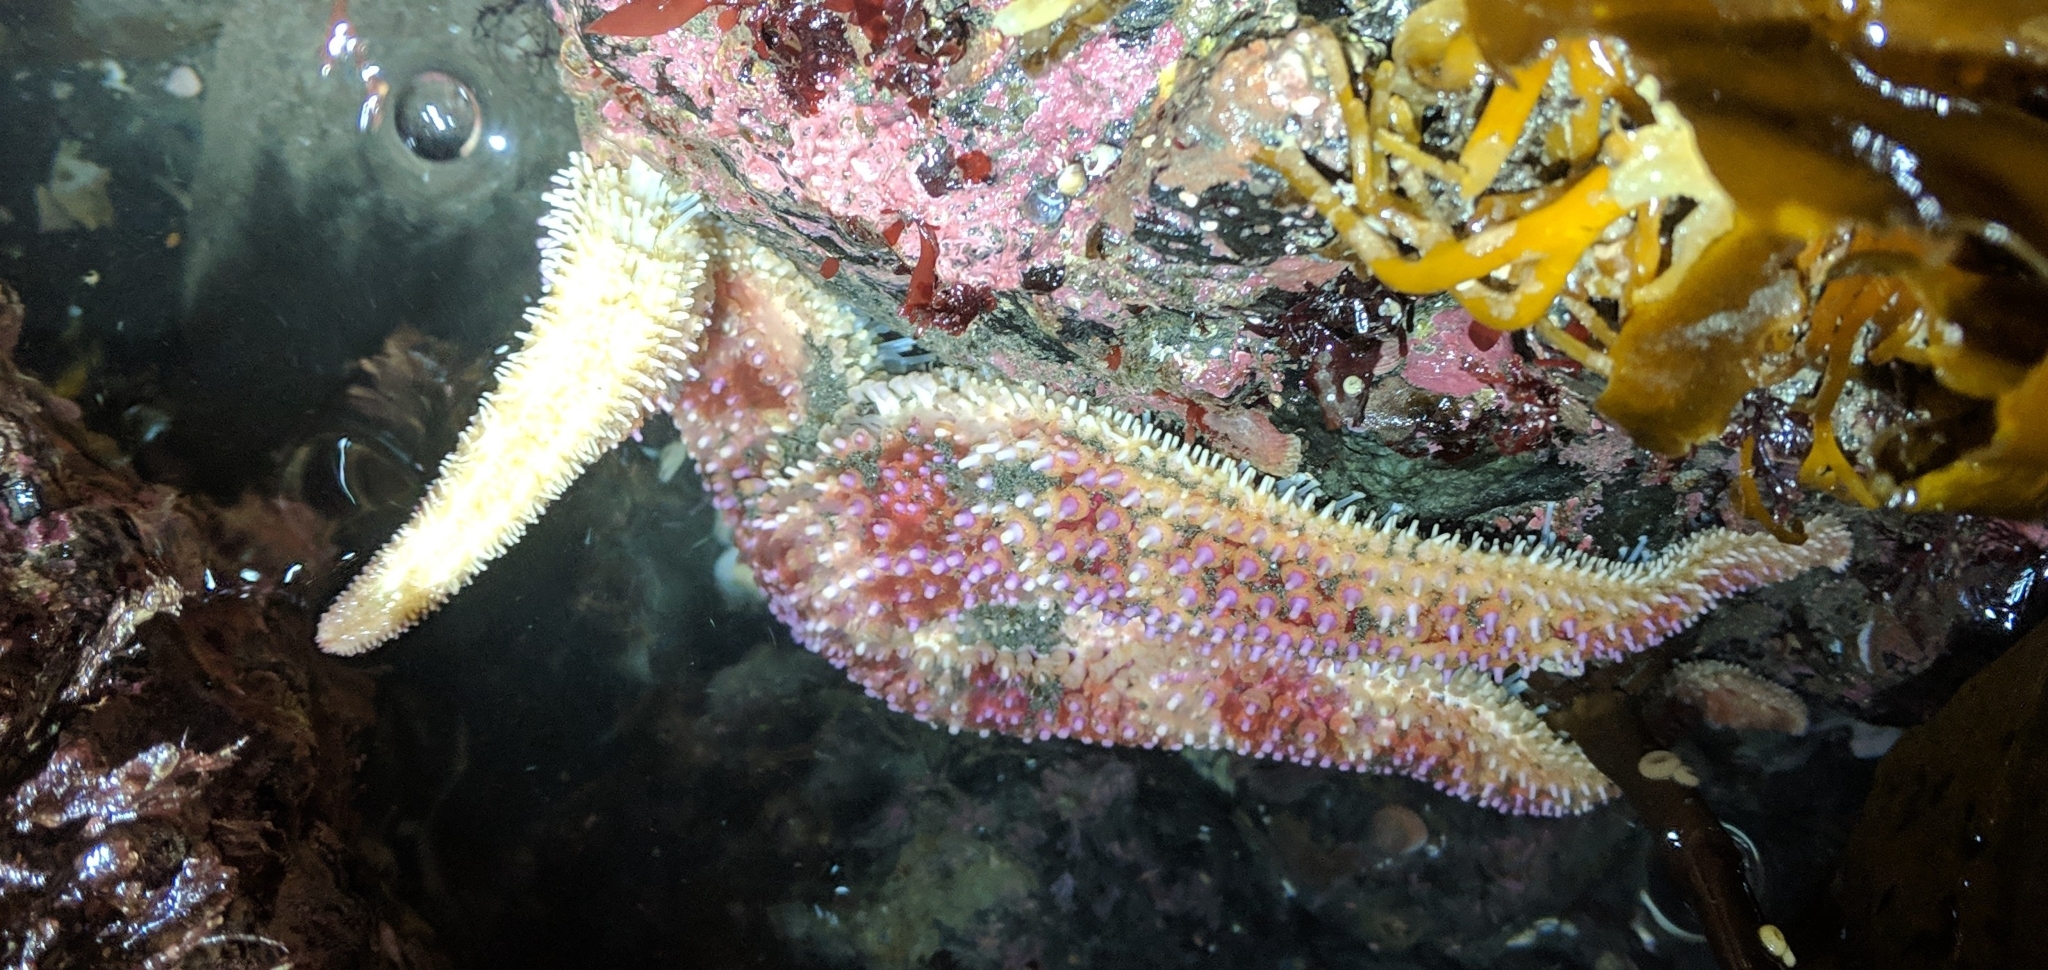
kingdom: Animalia
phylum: Echinodermata
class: Asteroidea
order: Forcipulatida
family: Asteriidae
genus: Orthasterias
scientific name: Orthasterias koehleri
